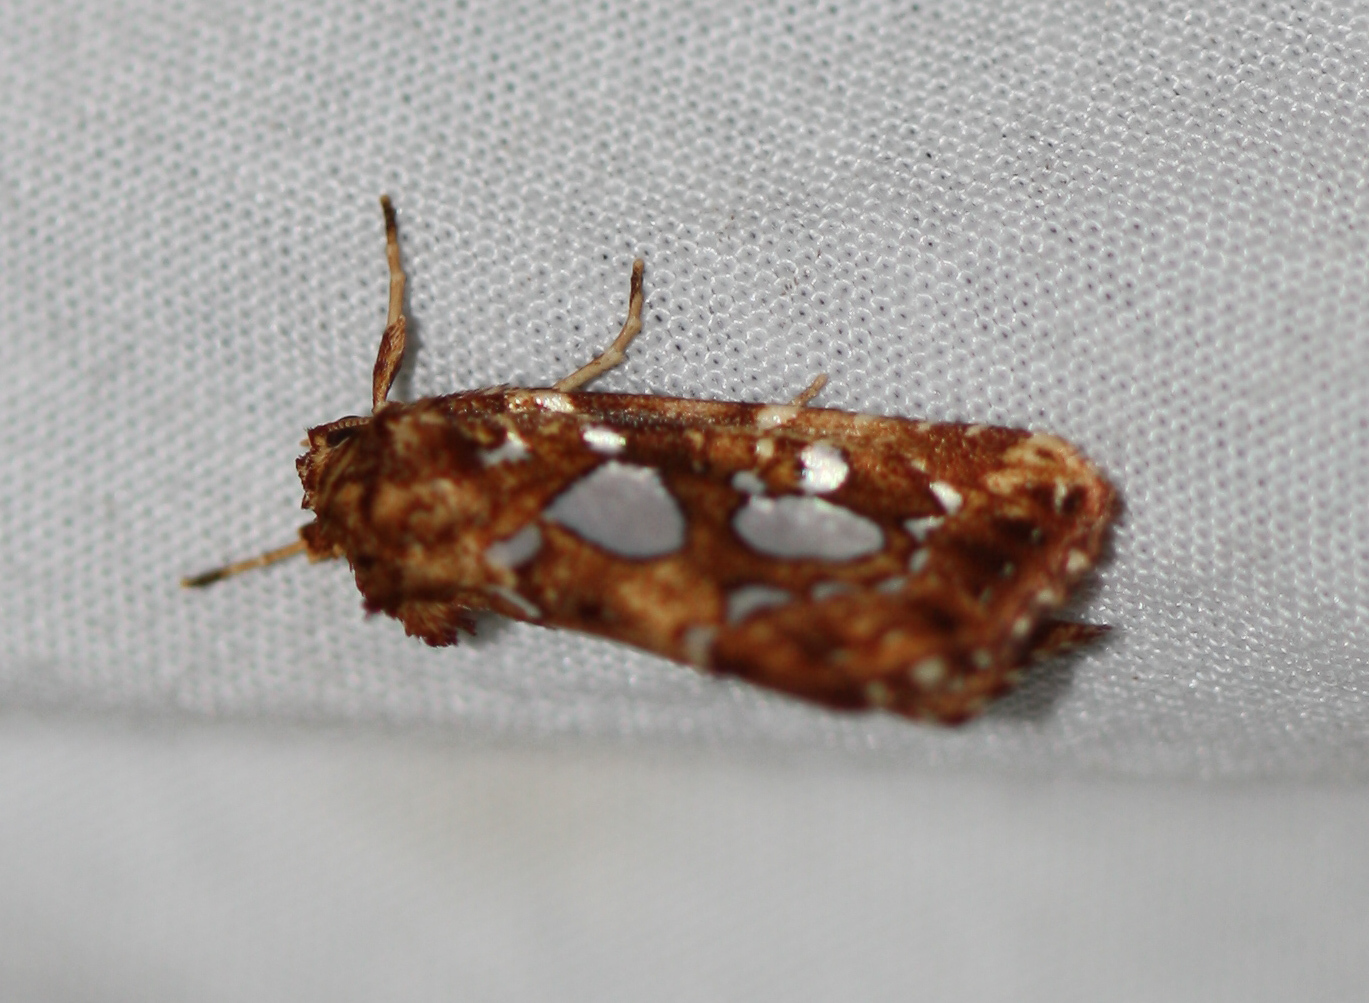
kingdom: Animalia
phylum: Arthropoda
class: Insecta
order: Lepidoptera
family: Noctuidae
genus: Callopistria
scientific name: Callopistria cordata
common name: Silver-spotted fern moth
